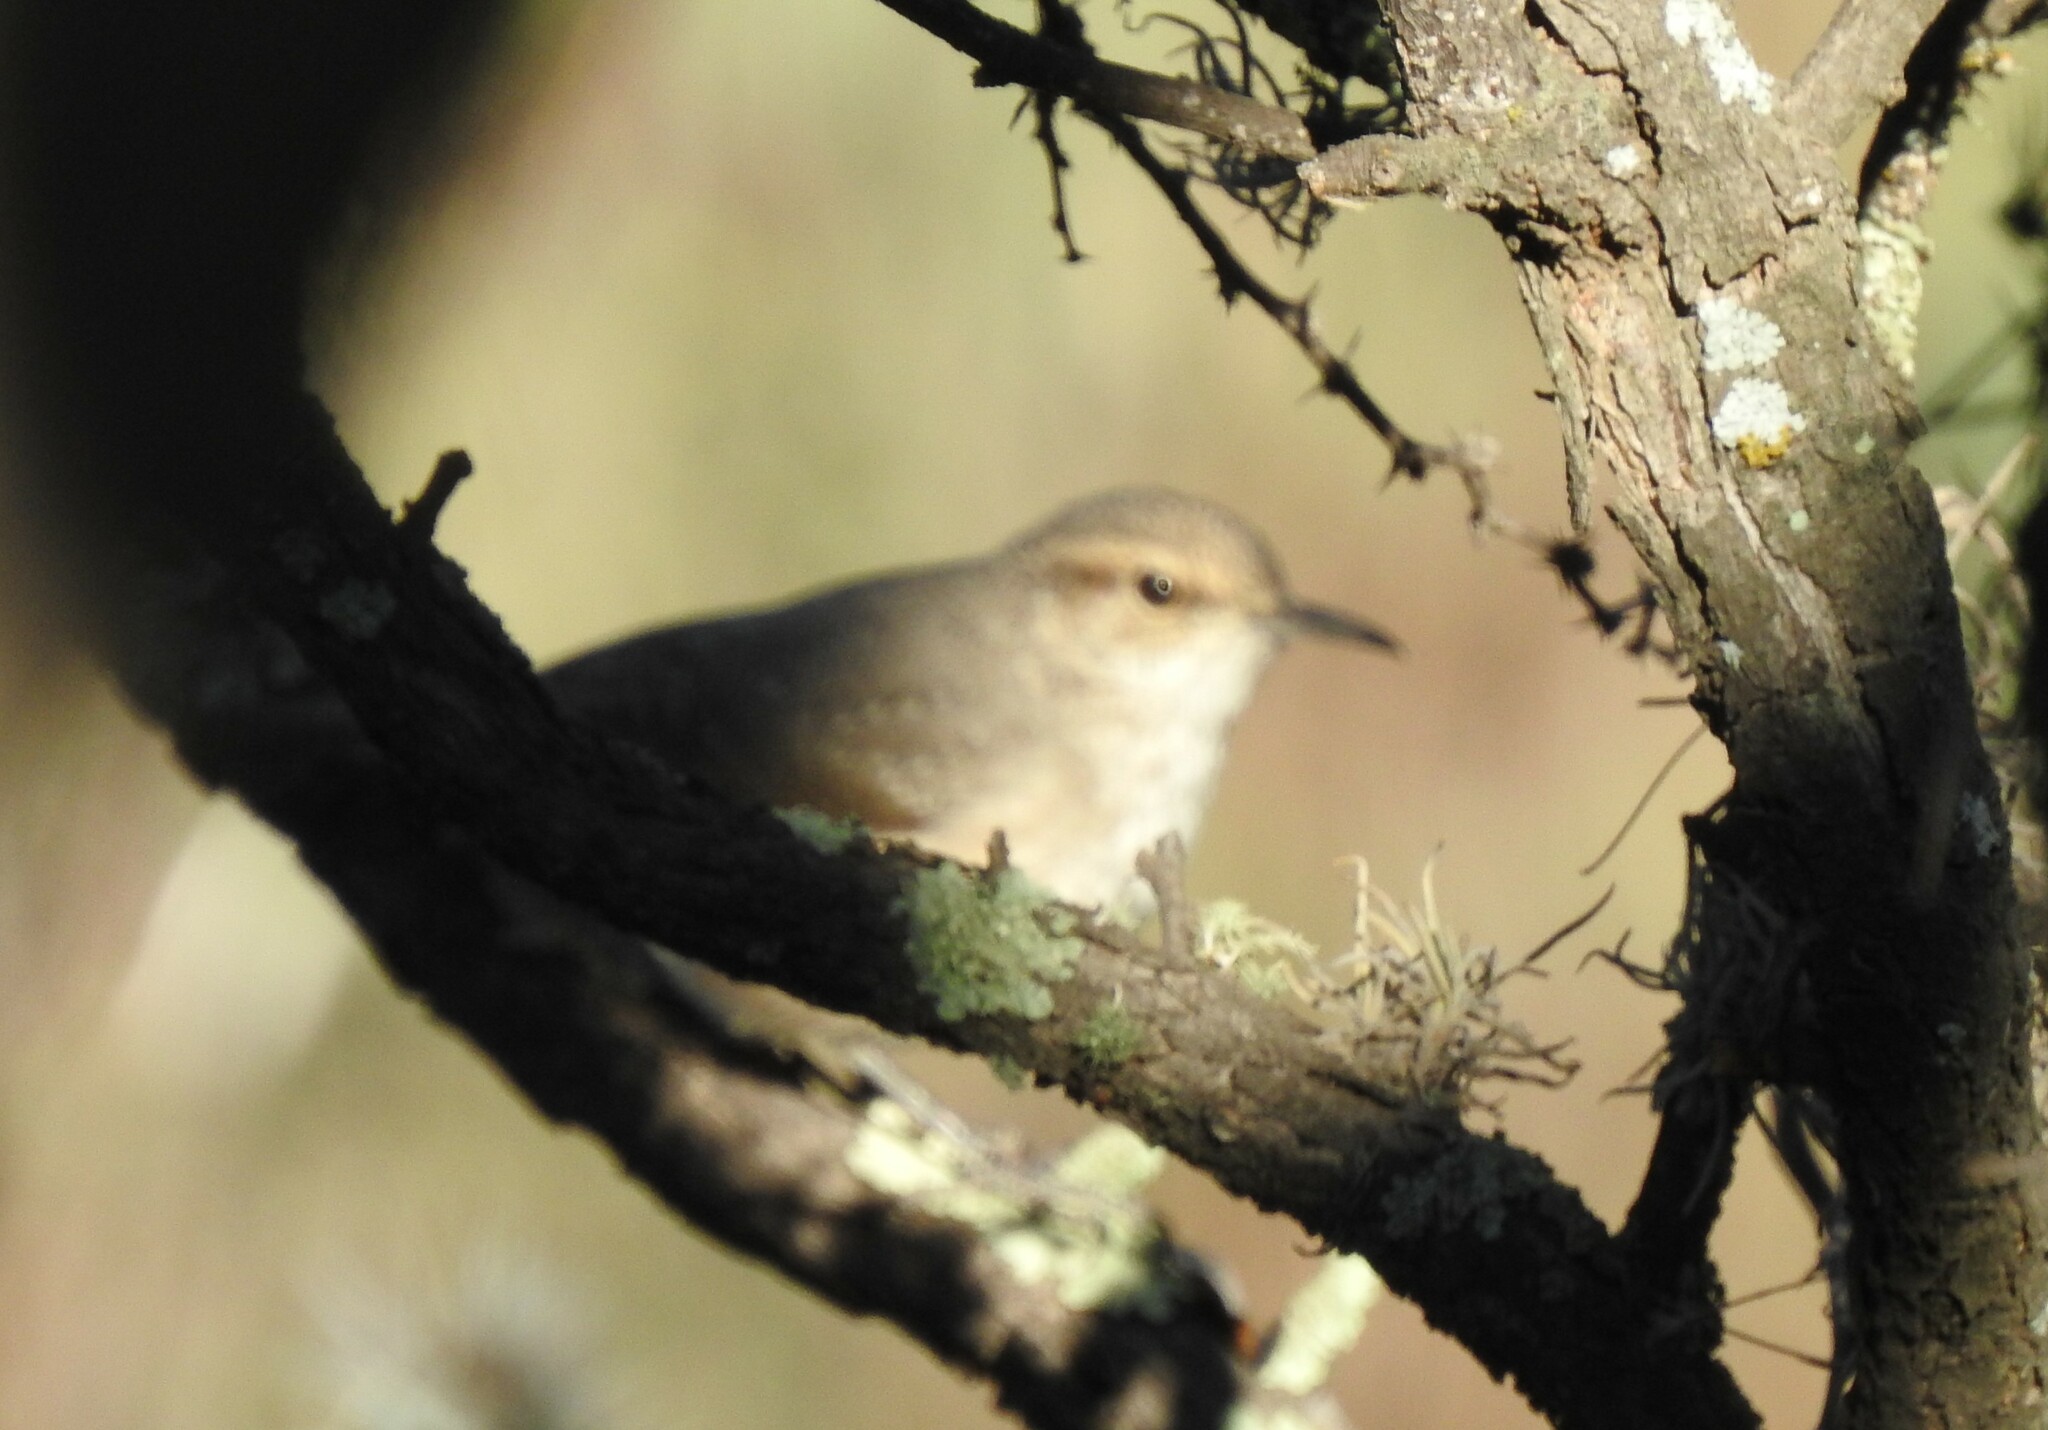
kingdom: Animalia
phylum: Chordata
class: Aves
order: Passeriformes
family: Troglodytidae
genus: Thryomanes
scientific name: Thryomanes bewickii
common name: Bewick's wren
